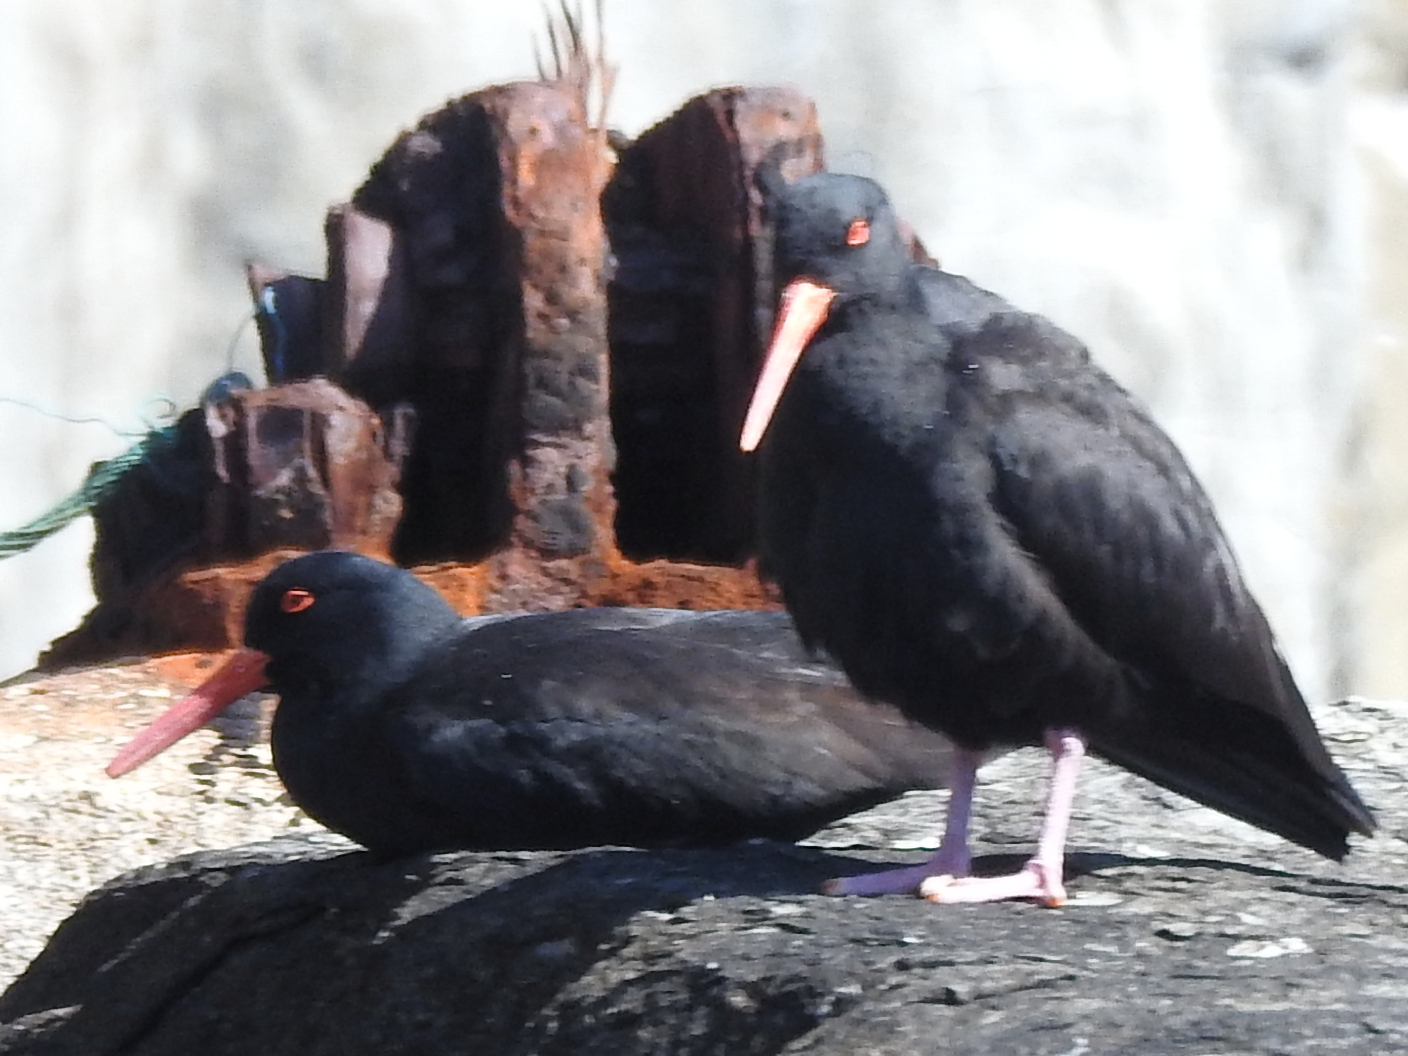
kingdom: Animalia
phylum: Chordata
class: Aves
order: Charadriiformes
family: Haematopodidae
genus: Haematopus
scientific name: Haematopus fuliginosus
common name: Sooty oystercatcher
